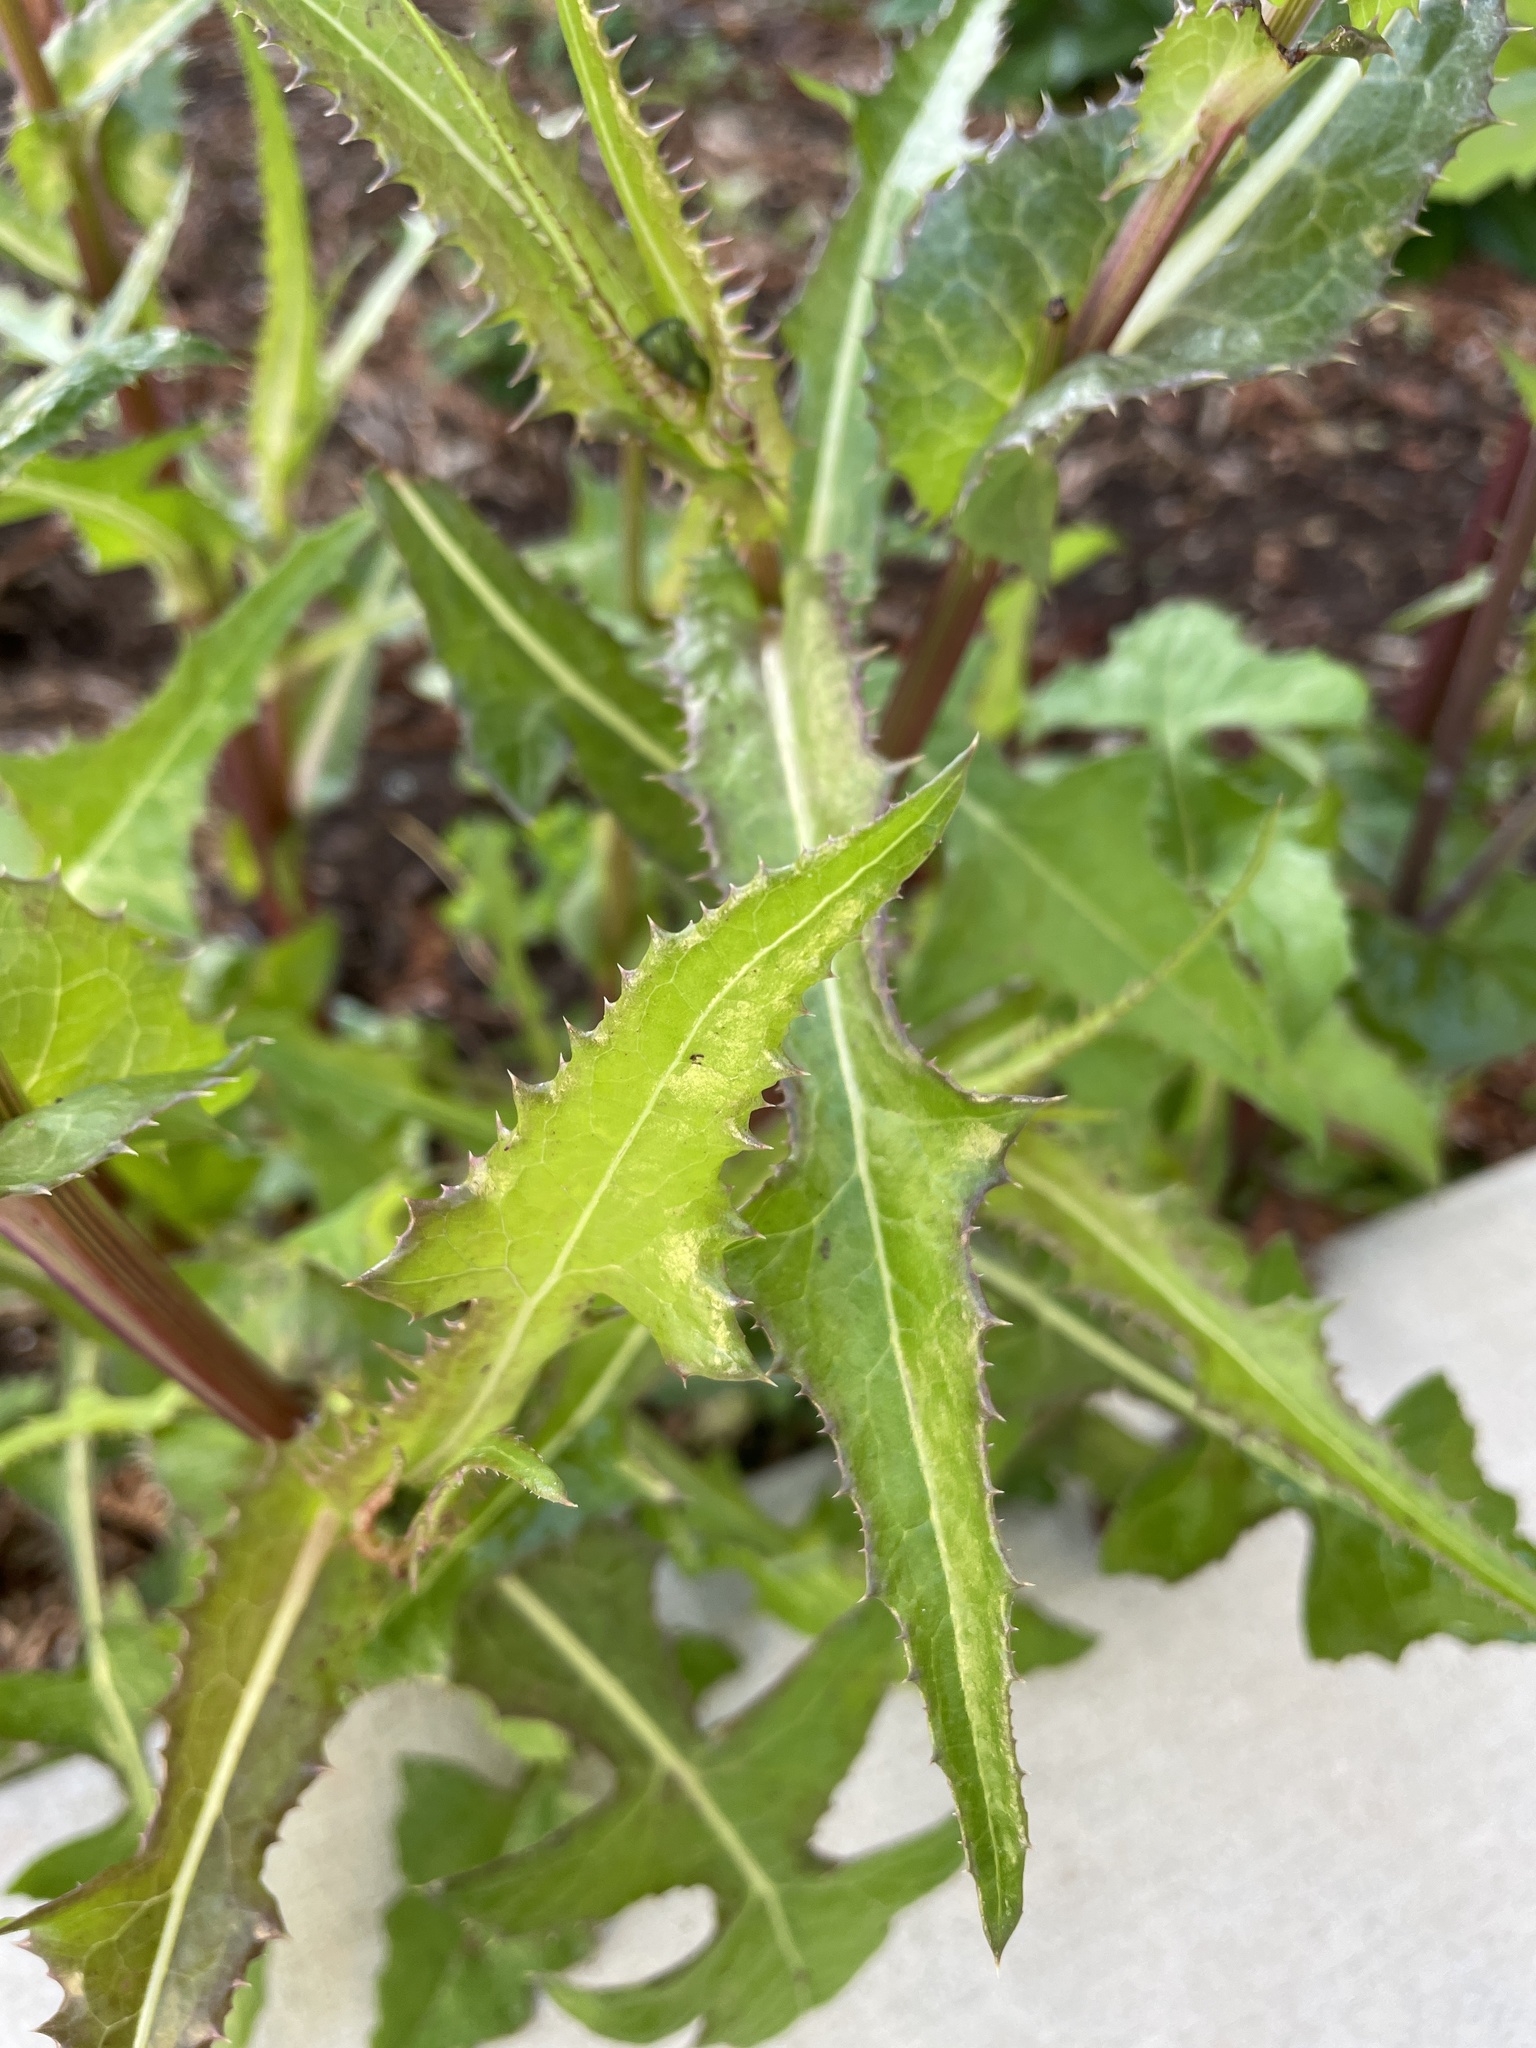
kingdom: Plantae
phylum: Tracheophyta
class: Magnoliopsida
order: Asterales
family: Asteraceae
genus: Sonchus
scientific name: Sonchus oleraceus
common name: Common sowthistle
